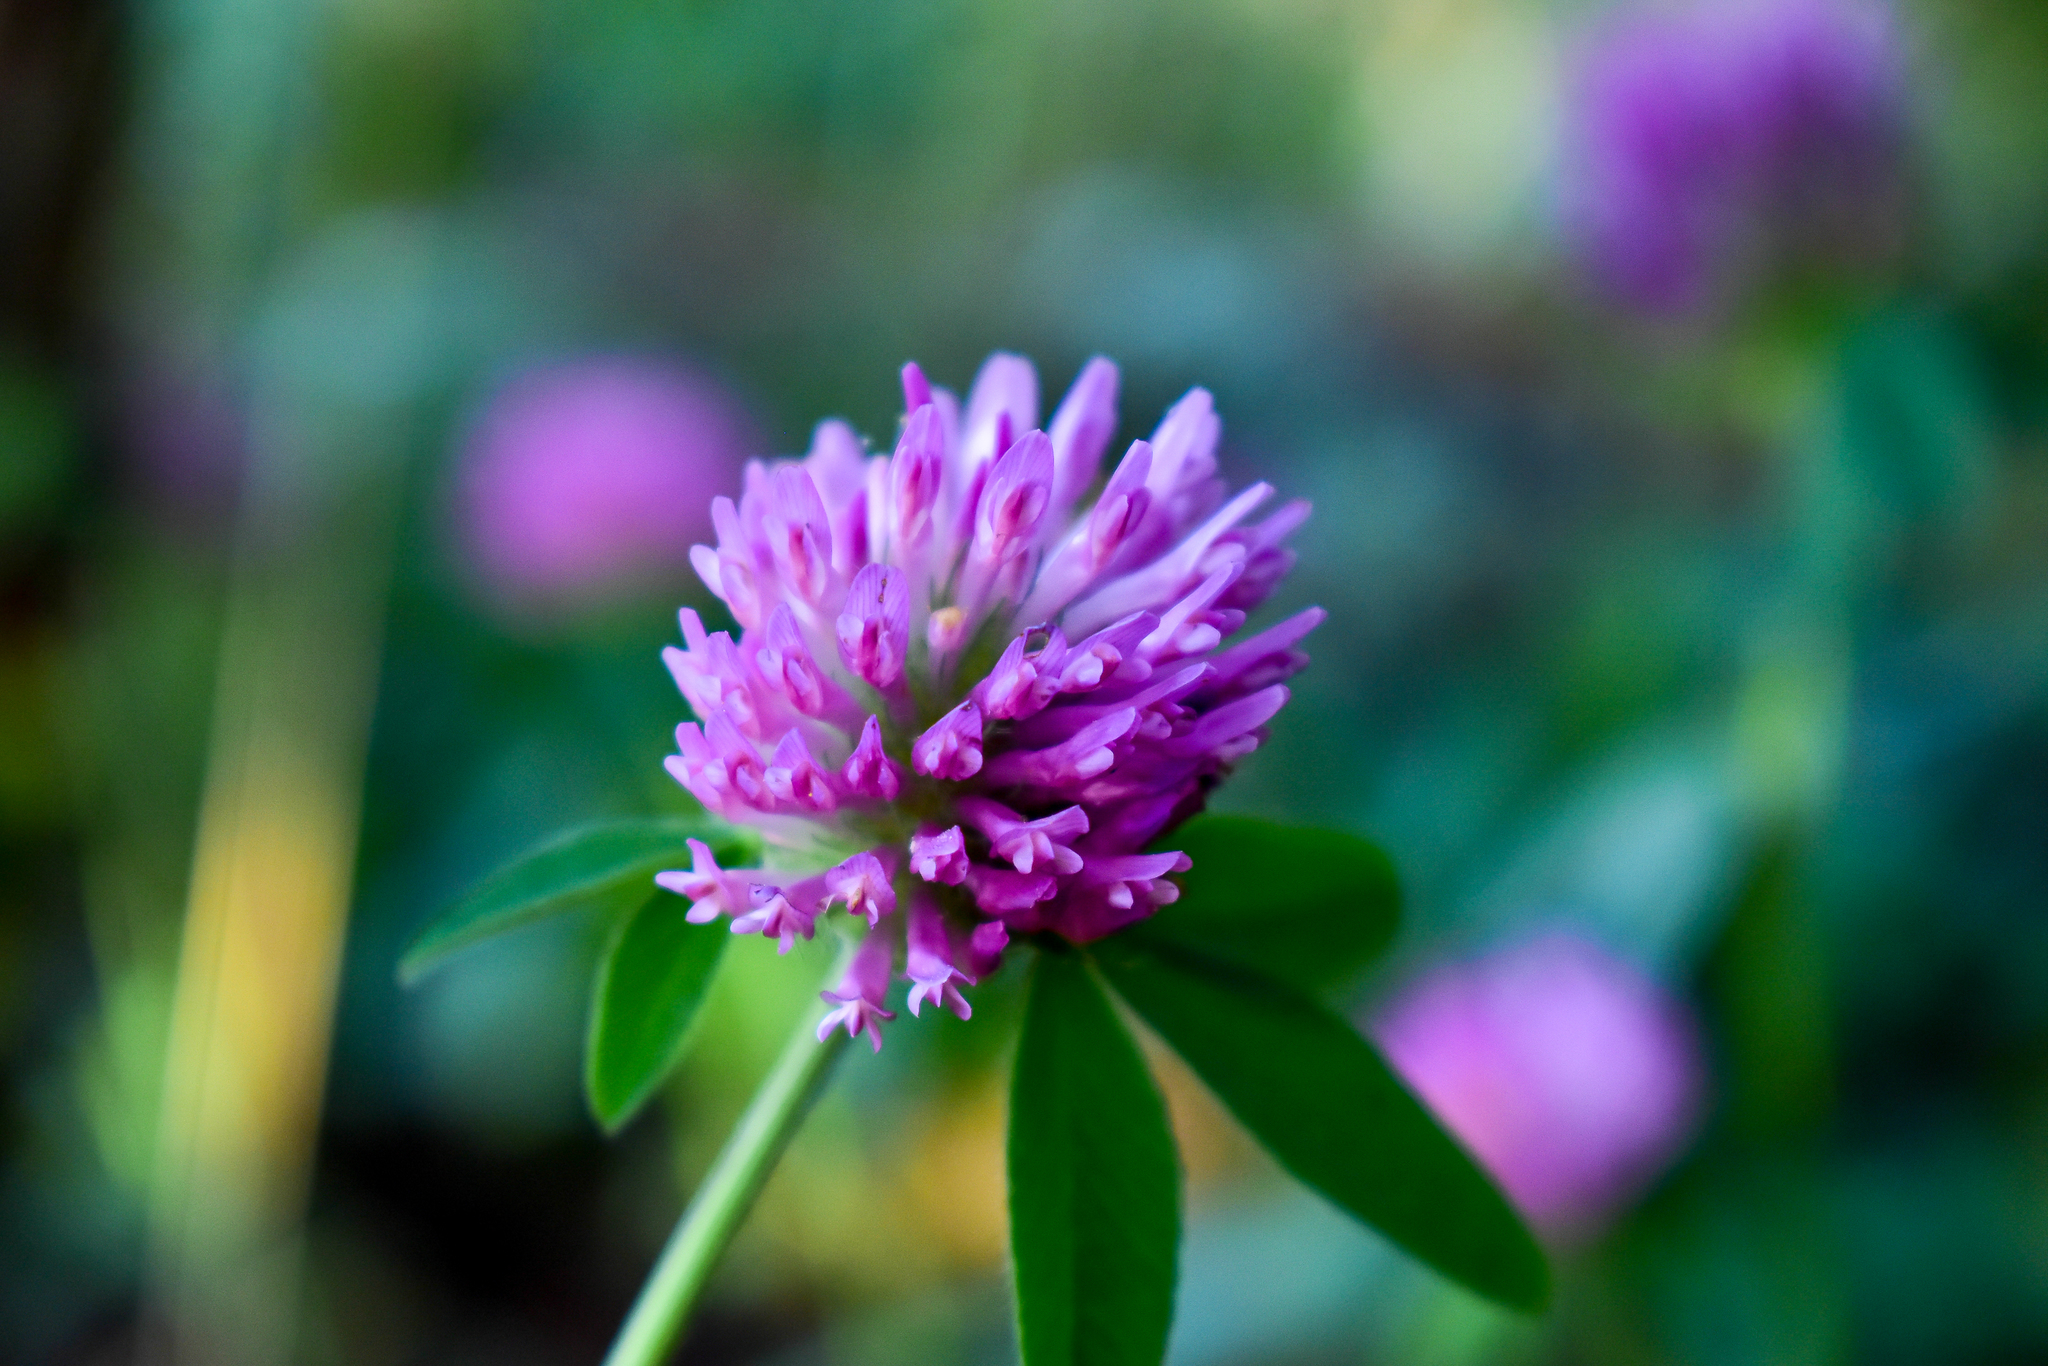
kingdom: Plantae
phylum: Tracheophyta
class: Magnoliopsida
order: Fabales
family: Fabaceae
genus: Trifolium
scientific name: Trifolium pratense
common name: Red clover
